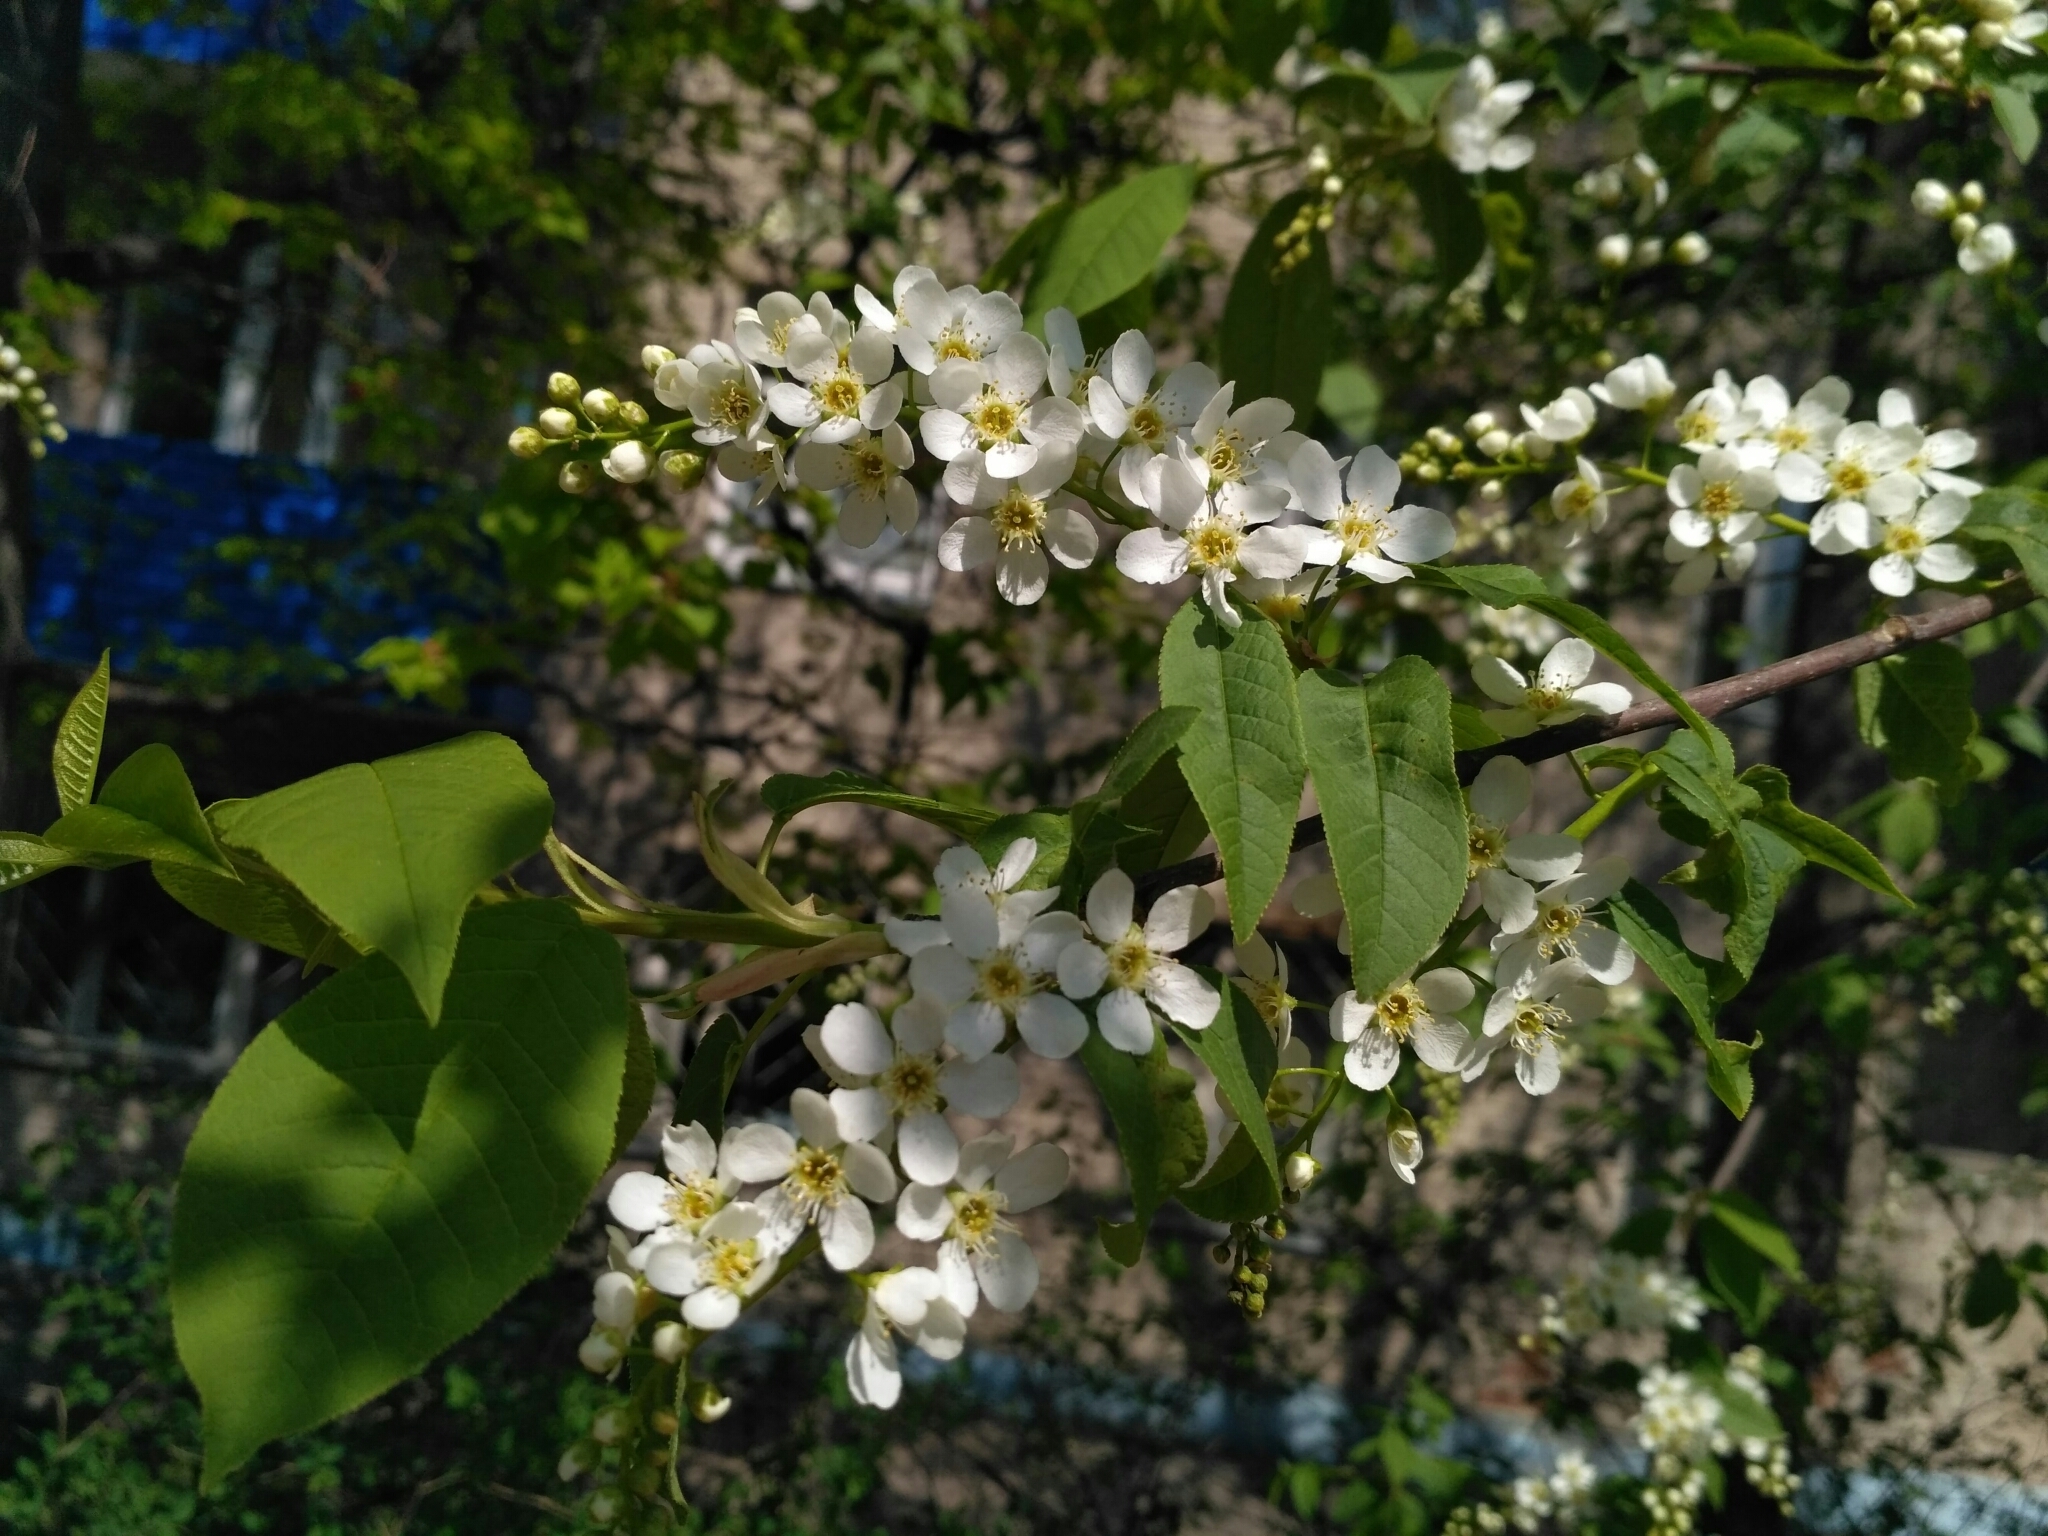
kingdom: Plantae
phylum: Tracheophyta
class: Magnoliopsida
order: Rosales
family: Rosaceae
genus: Prunus
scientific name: Prunus padus
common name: Bird cherry
